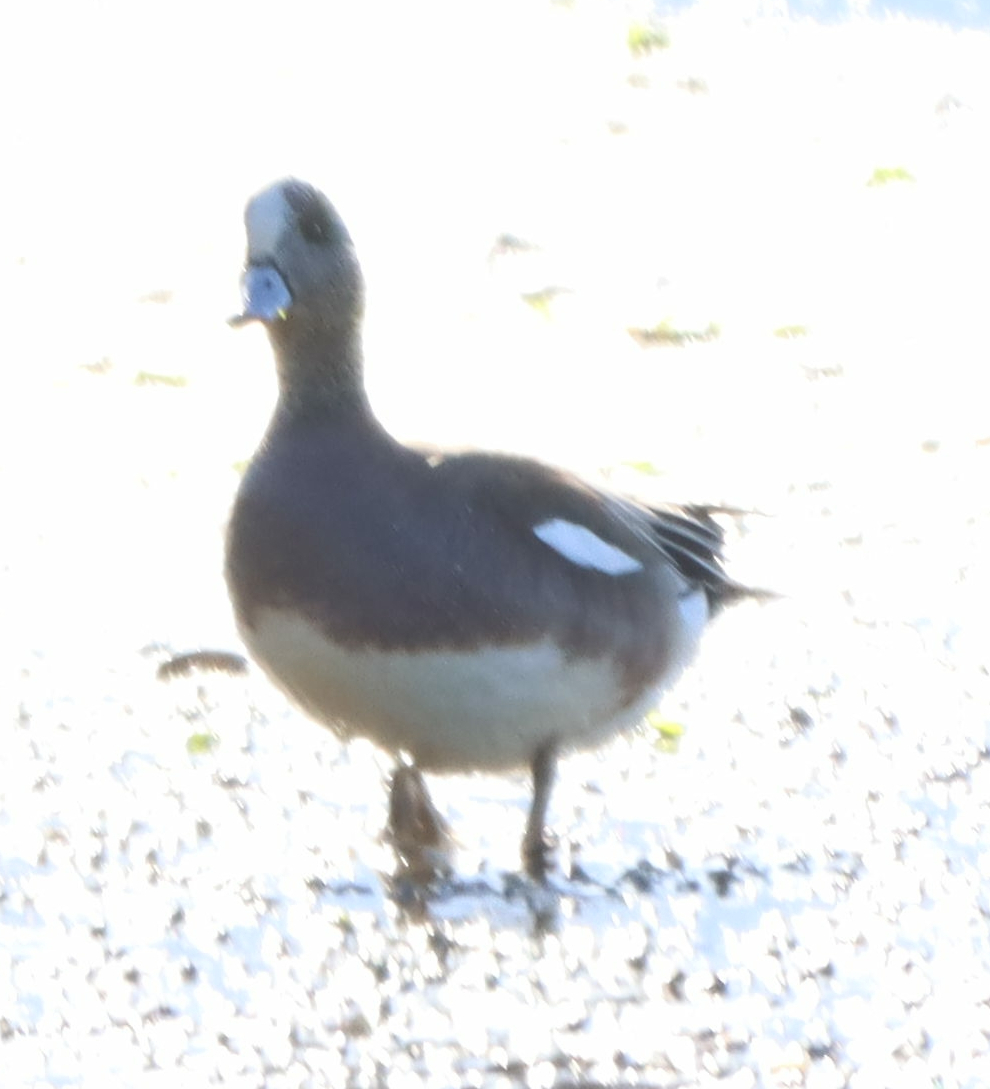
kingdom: Animalia
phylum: Chordata
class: Aves
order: Anseriformes
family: Anatidae
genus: Mareca
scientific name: Mareca americana
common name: American wigeon
